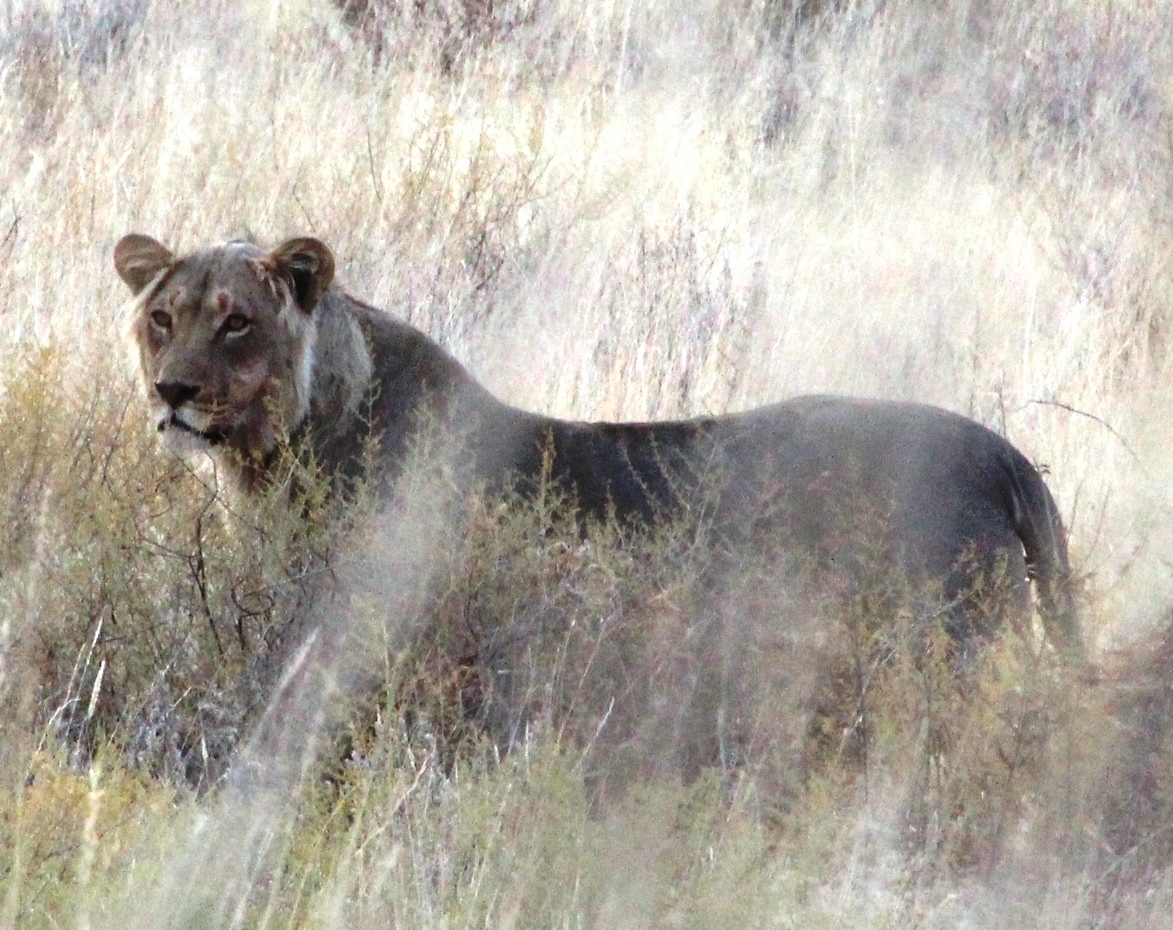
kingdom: Animalia
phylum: Chordata
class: Mammalia
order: Carnivora
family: Felidae
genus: Panthera
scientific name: Panthera leo
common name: Lion
